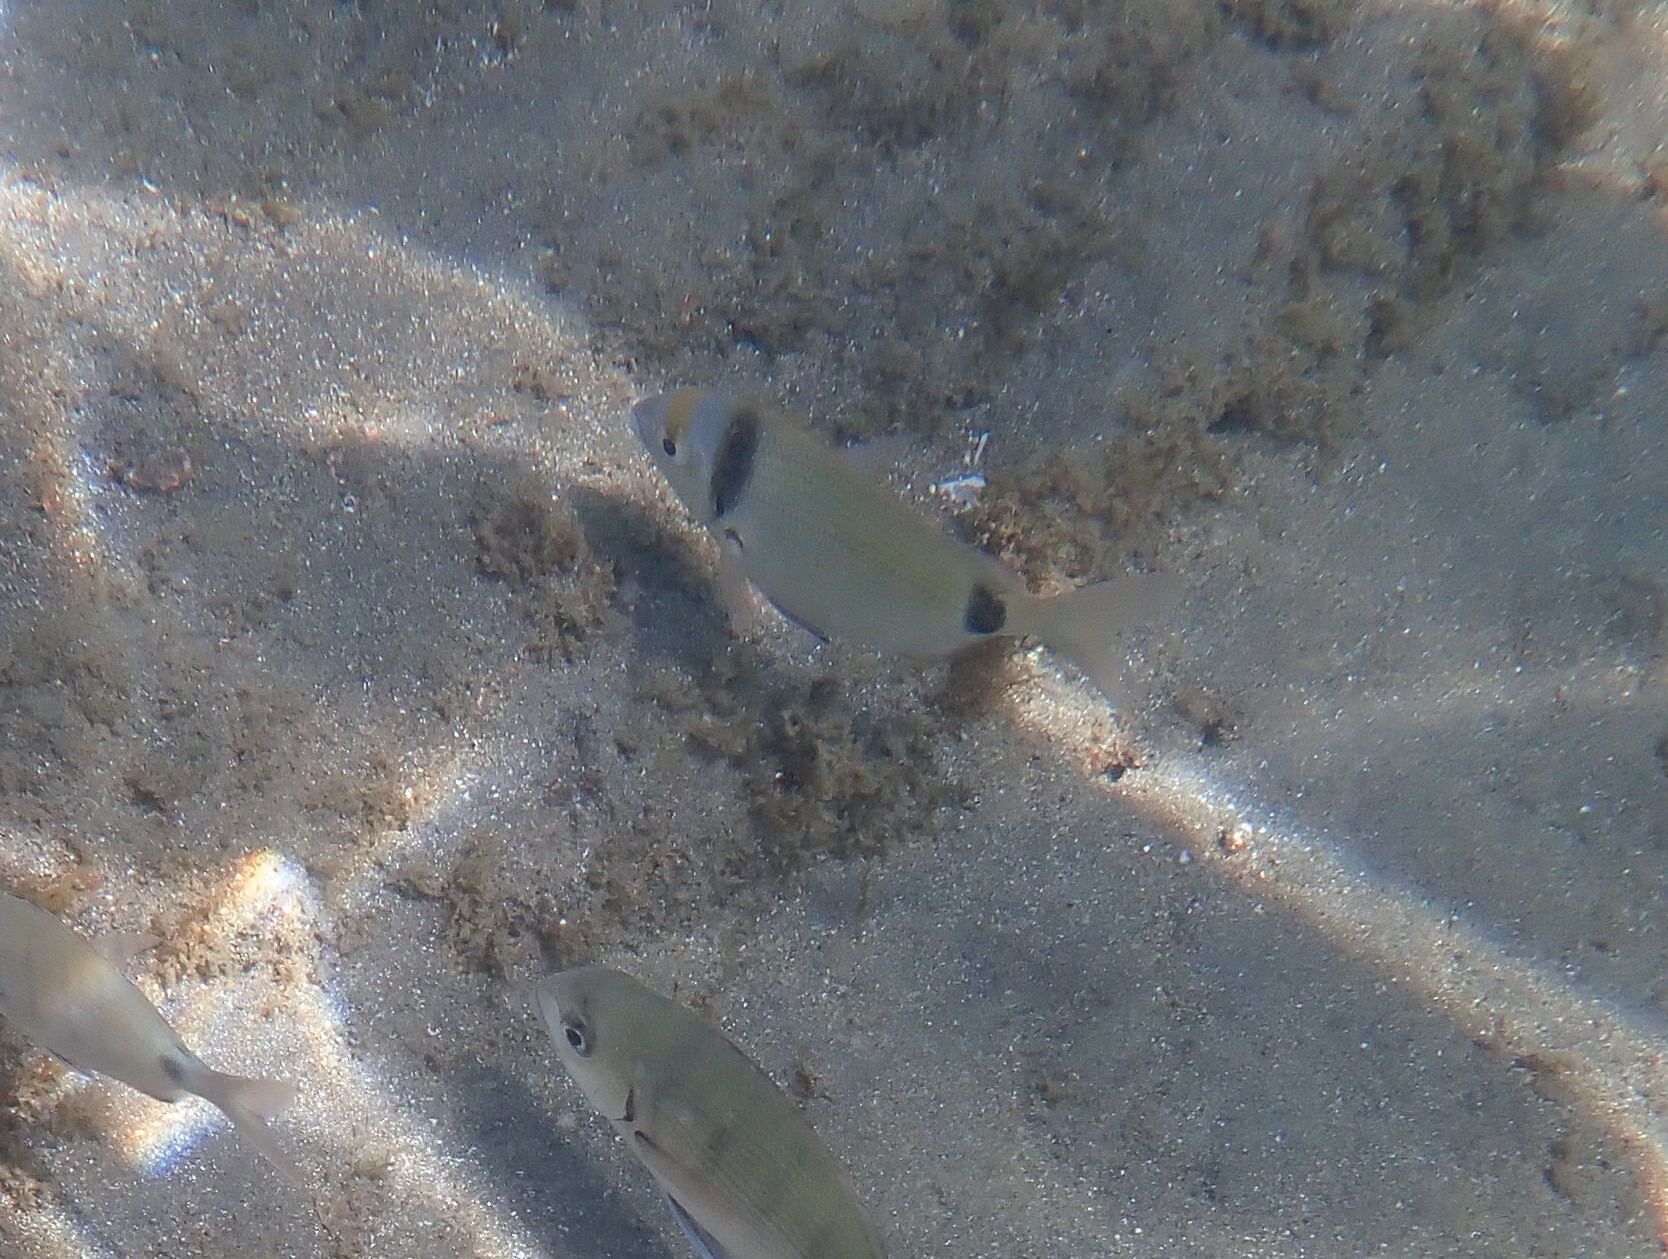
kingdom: Animalia
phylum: Chordata
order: Perciformes
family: Sparidae
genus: Diplodus
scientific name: Diplodus vulgaris
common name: Common two-banded seabream
